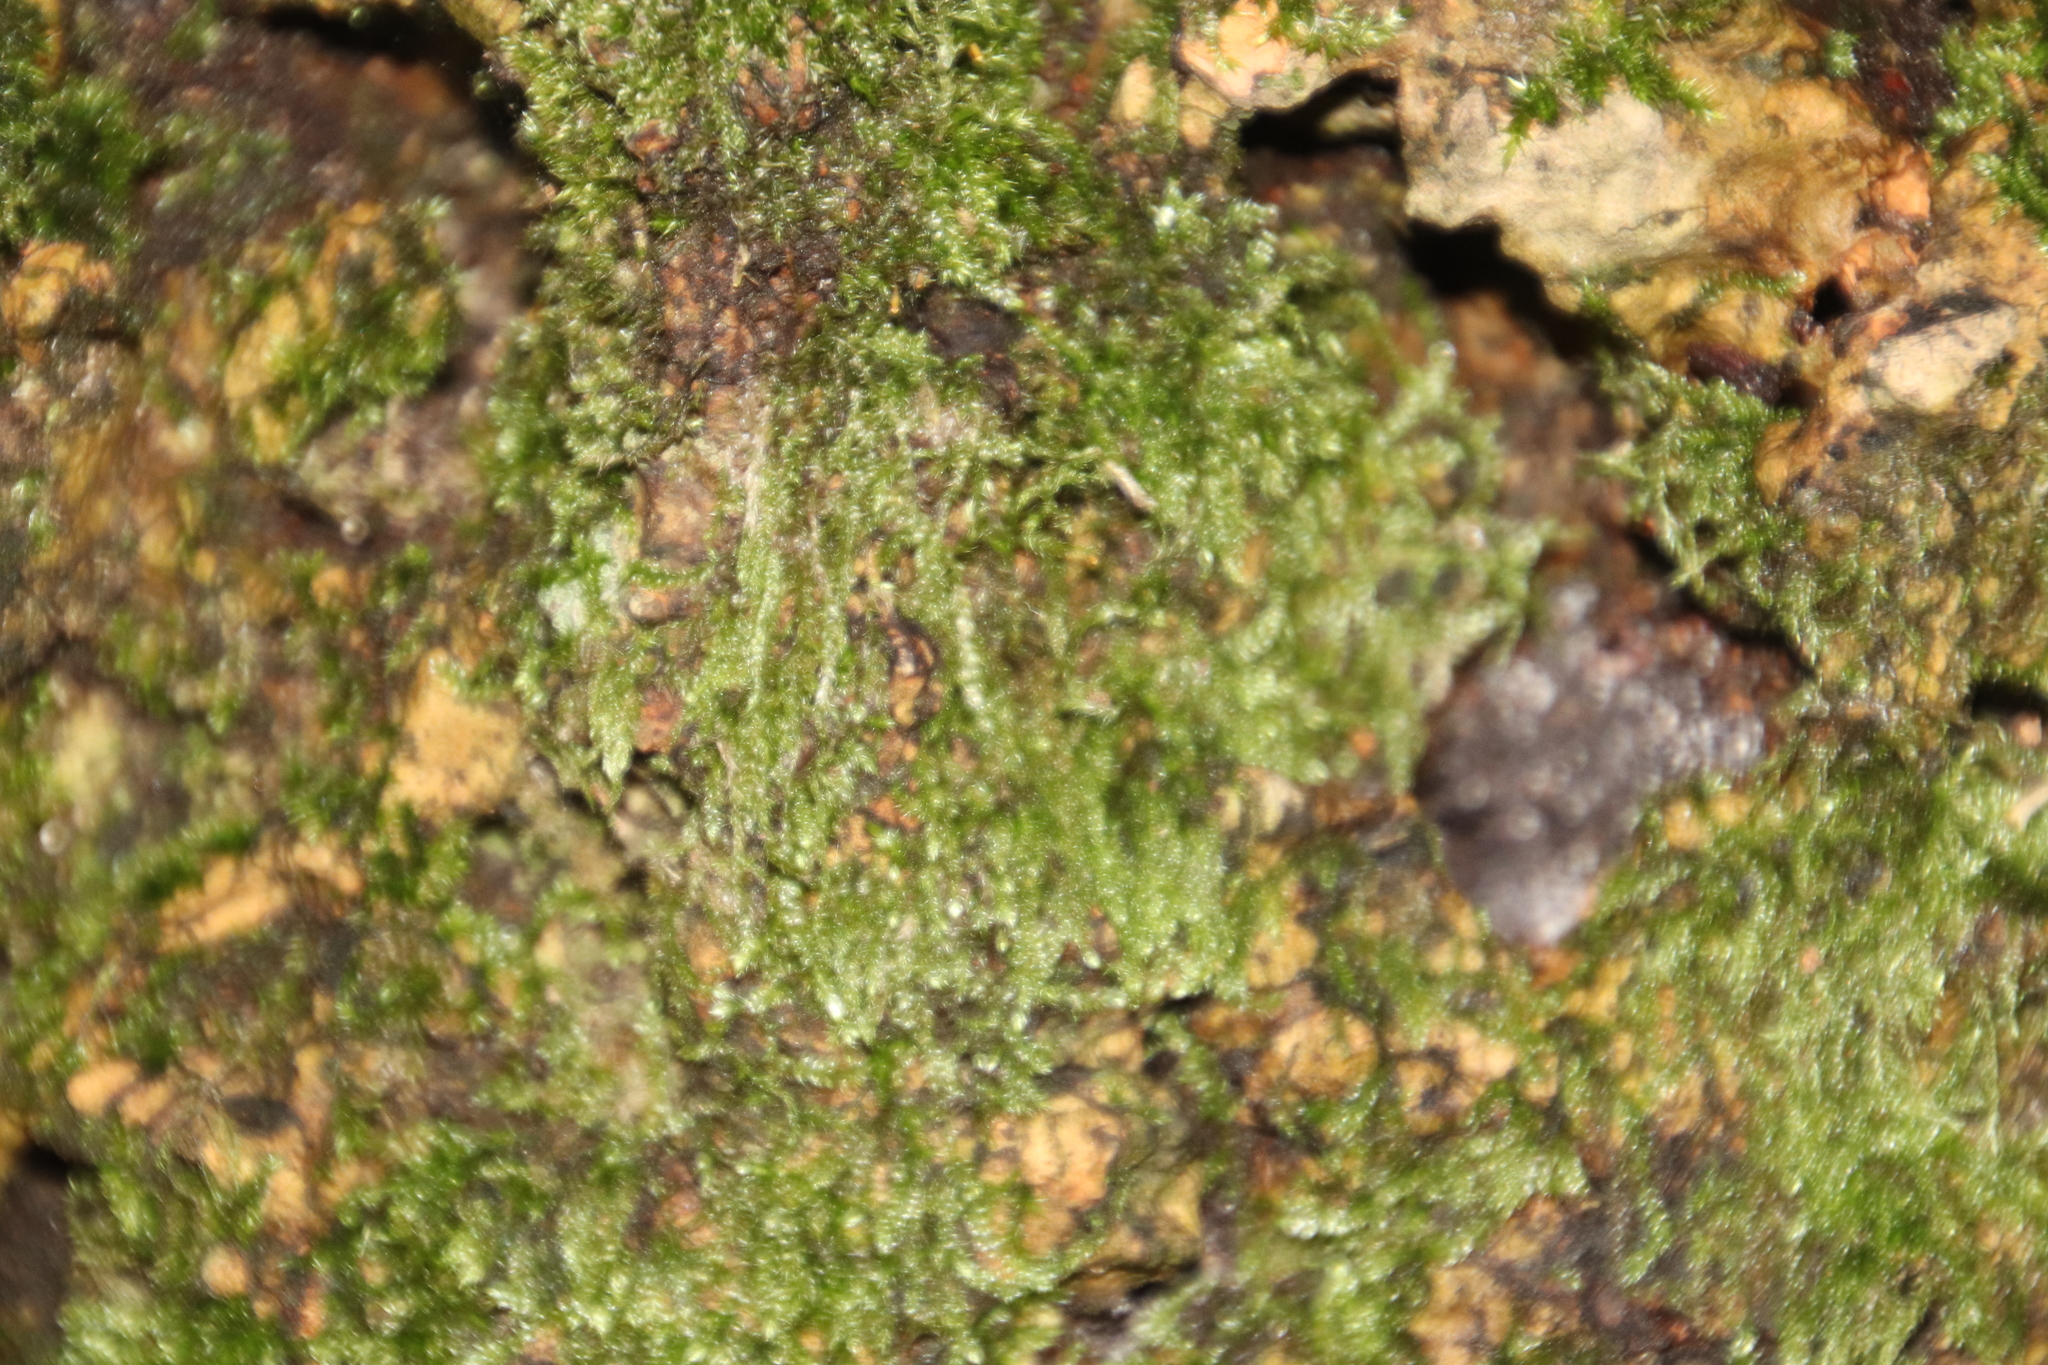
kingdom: Plantae
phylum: Bryophyta
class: Bryopsida
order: Hypnales
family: Hypnaceae
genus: Hypnum
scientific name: Hypnum cupressiforme
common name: Cypress-leaved plait-moss
